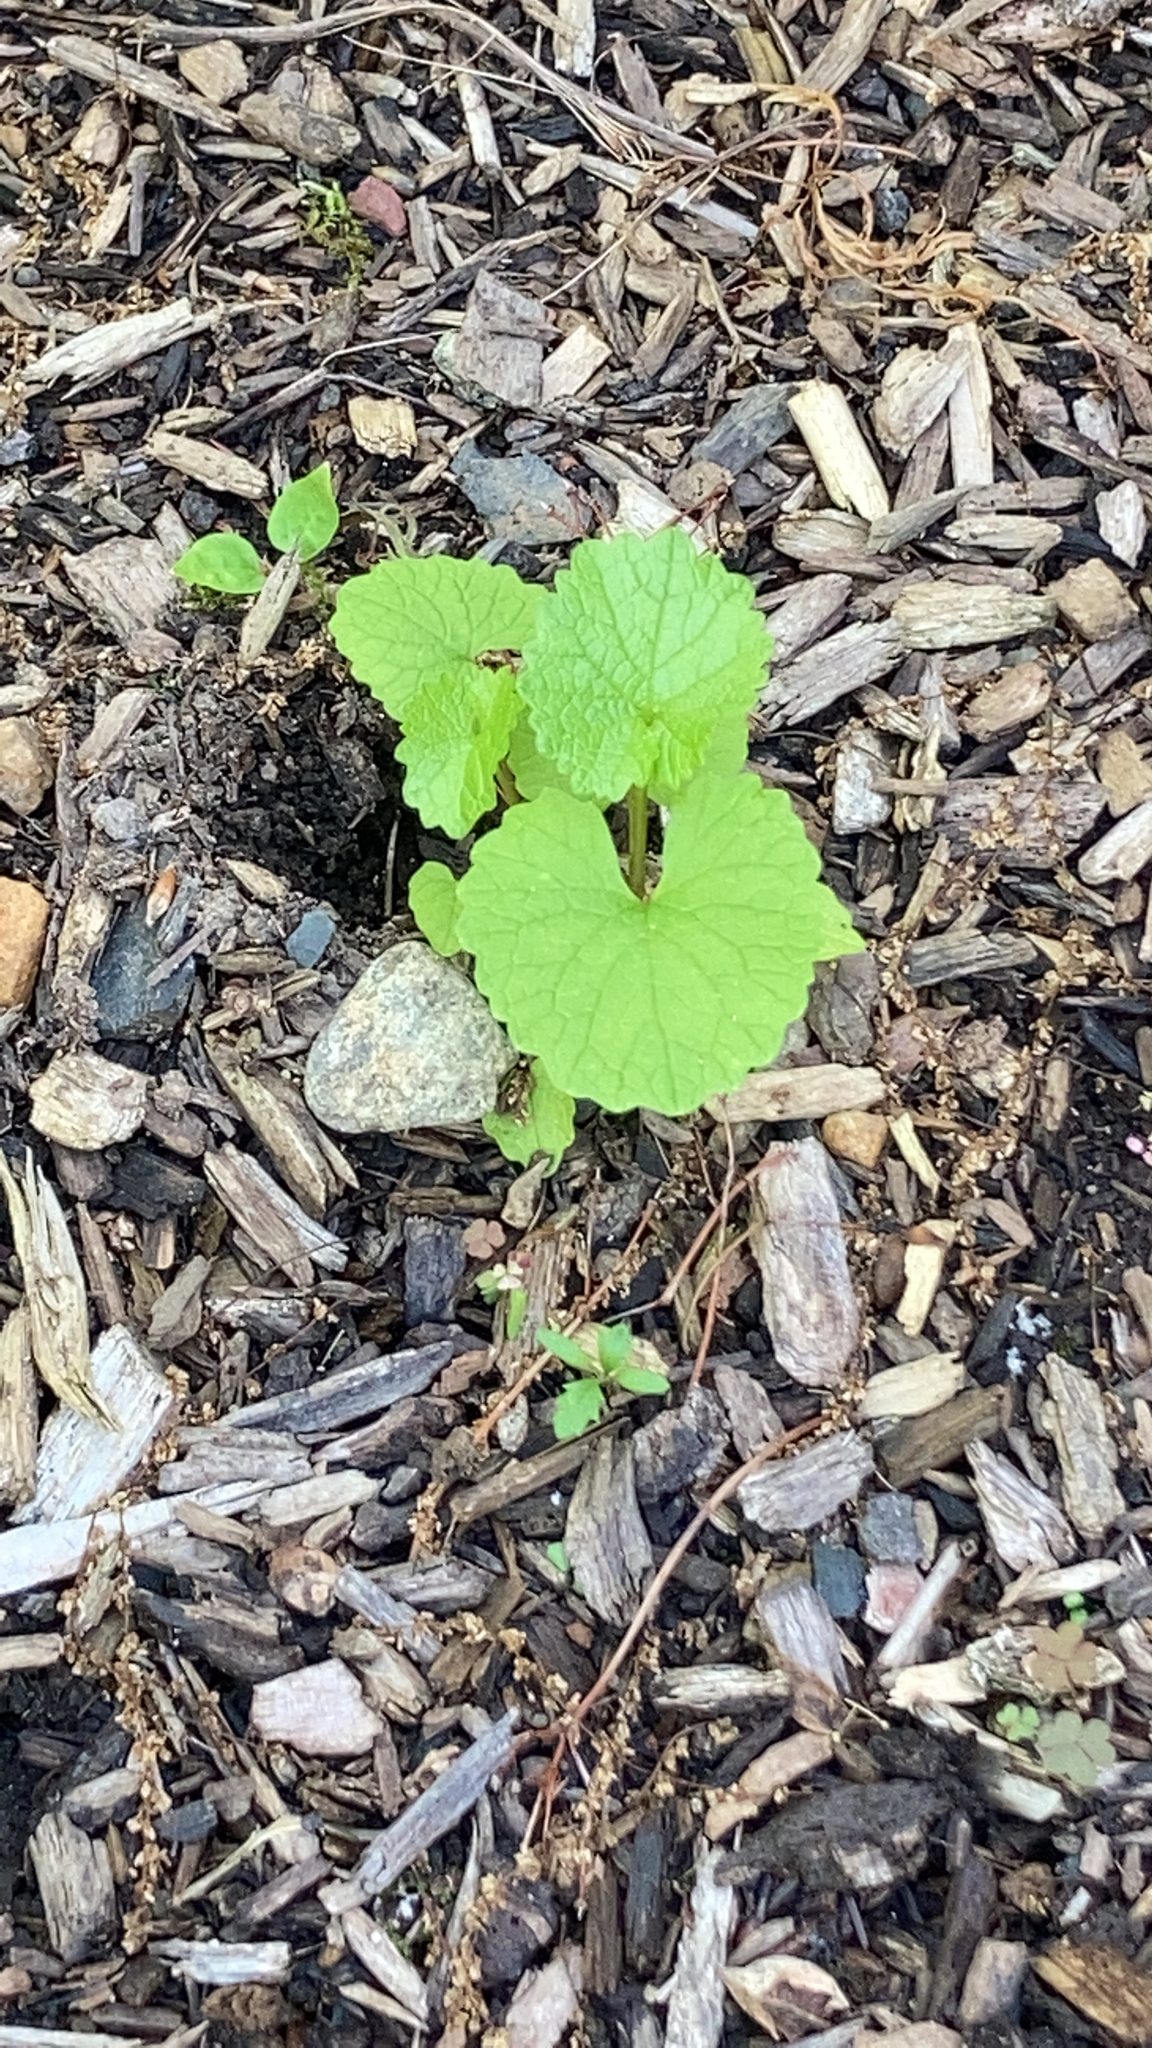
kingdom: Plantae
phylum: Tracheophyta
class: Magnoliopsida
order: Brassicales
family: Brassicaceae
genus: Alliaria
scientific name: Alliaria petiolata
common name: Garlic mustard
